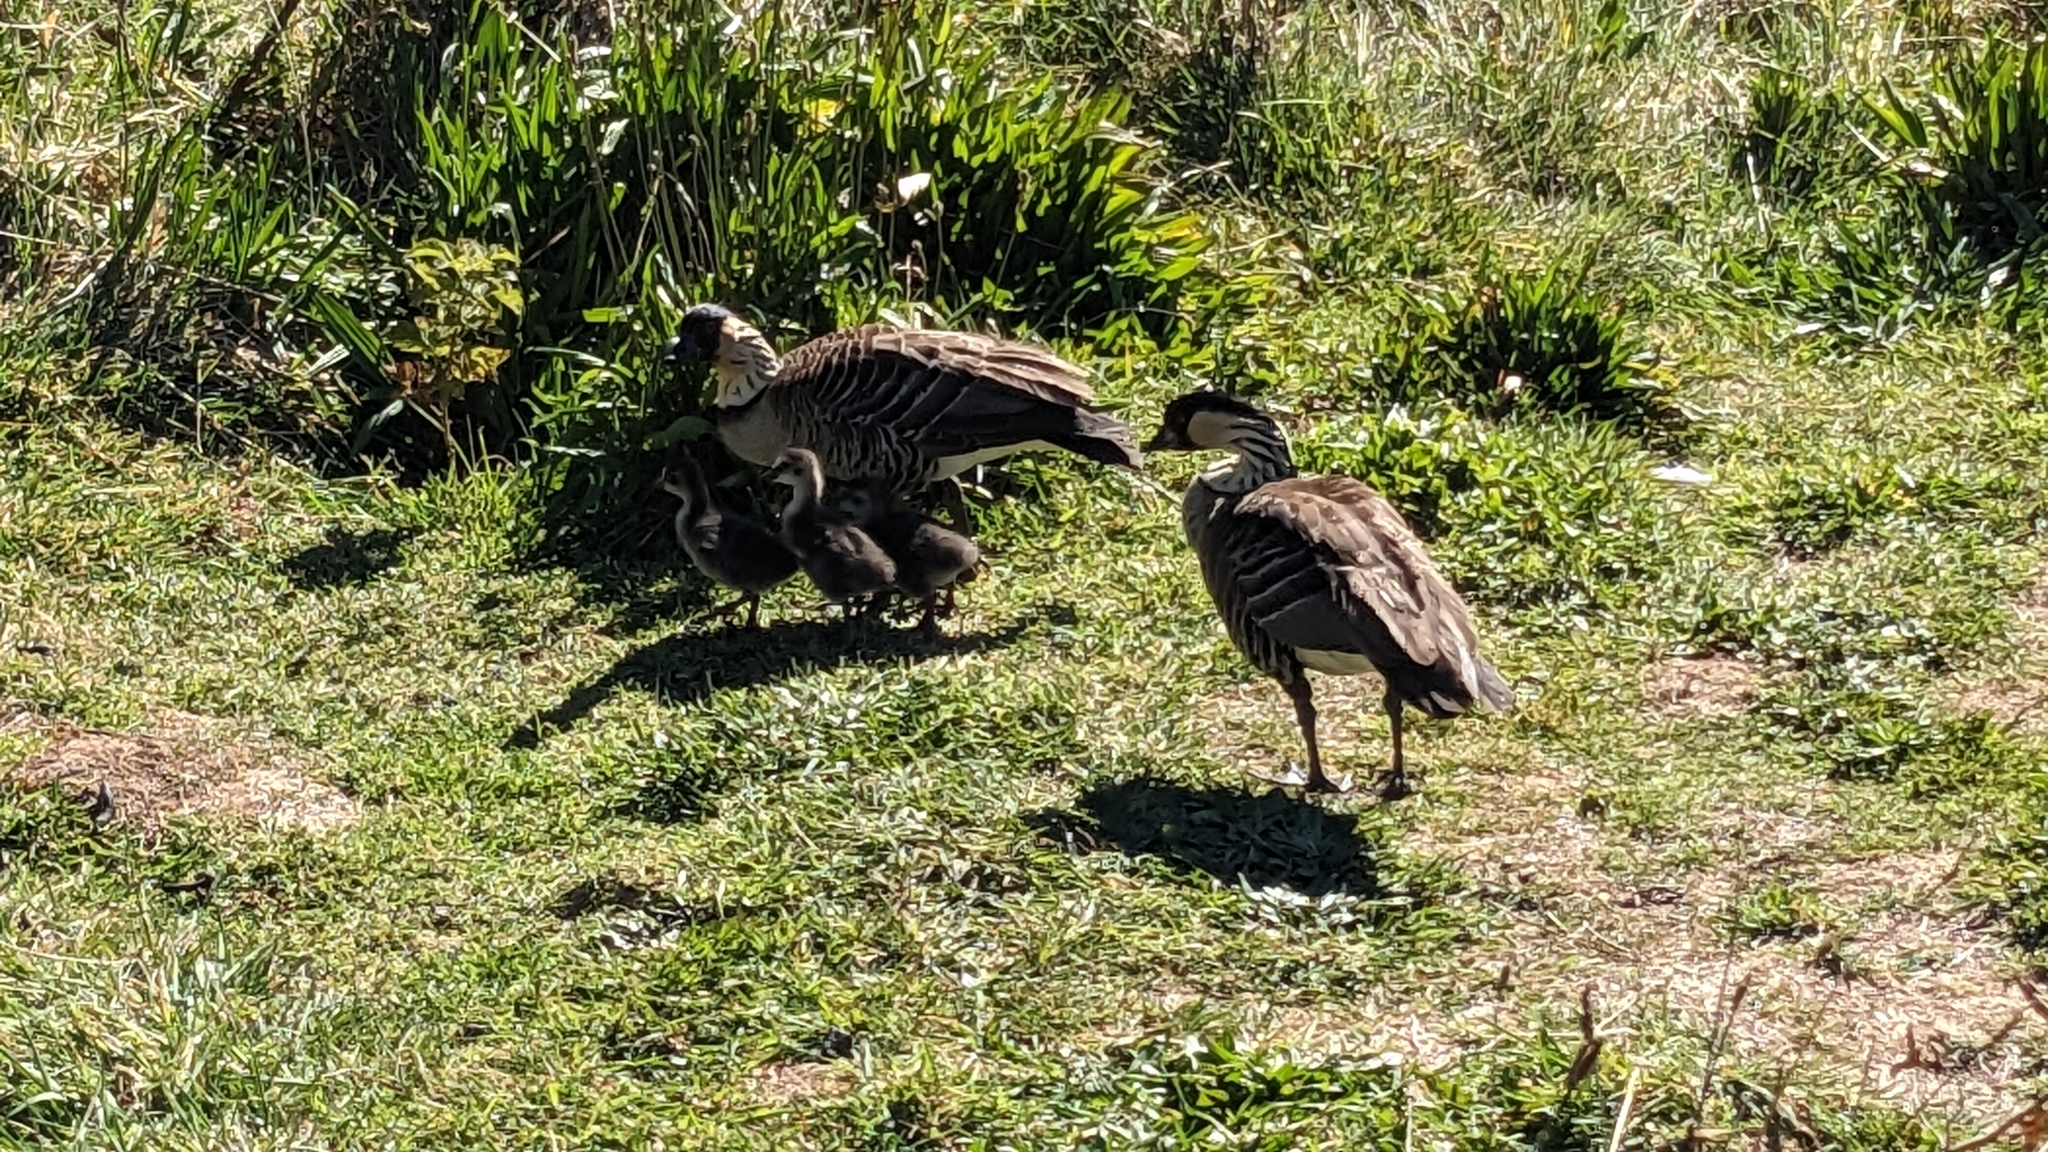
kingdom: Animalia
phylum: Chordata
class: Aves
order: Anseriformes
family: Anatidae
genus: Branta
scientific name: Branta sandvicensis
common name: Nene
